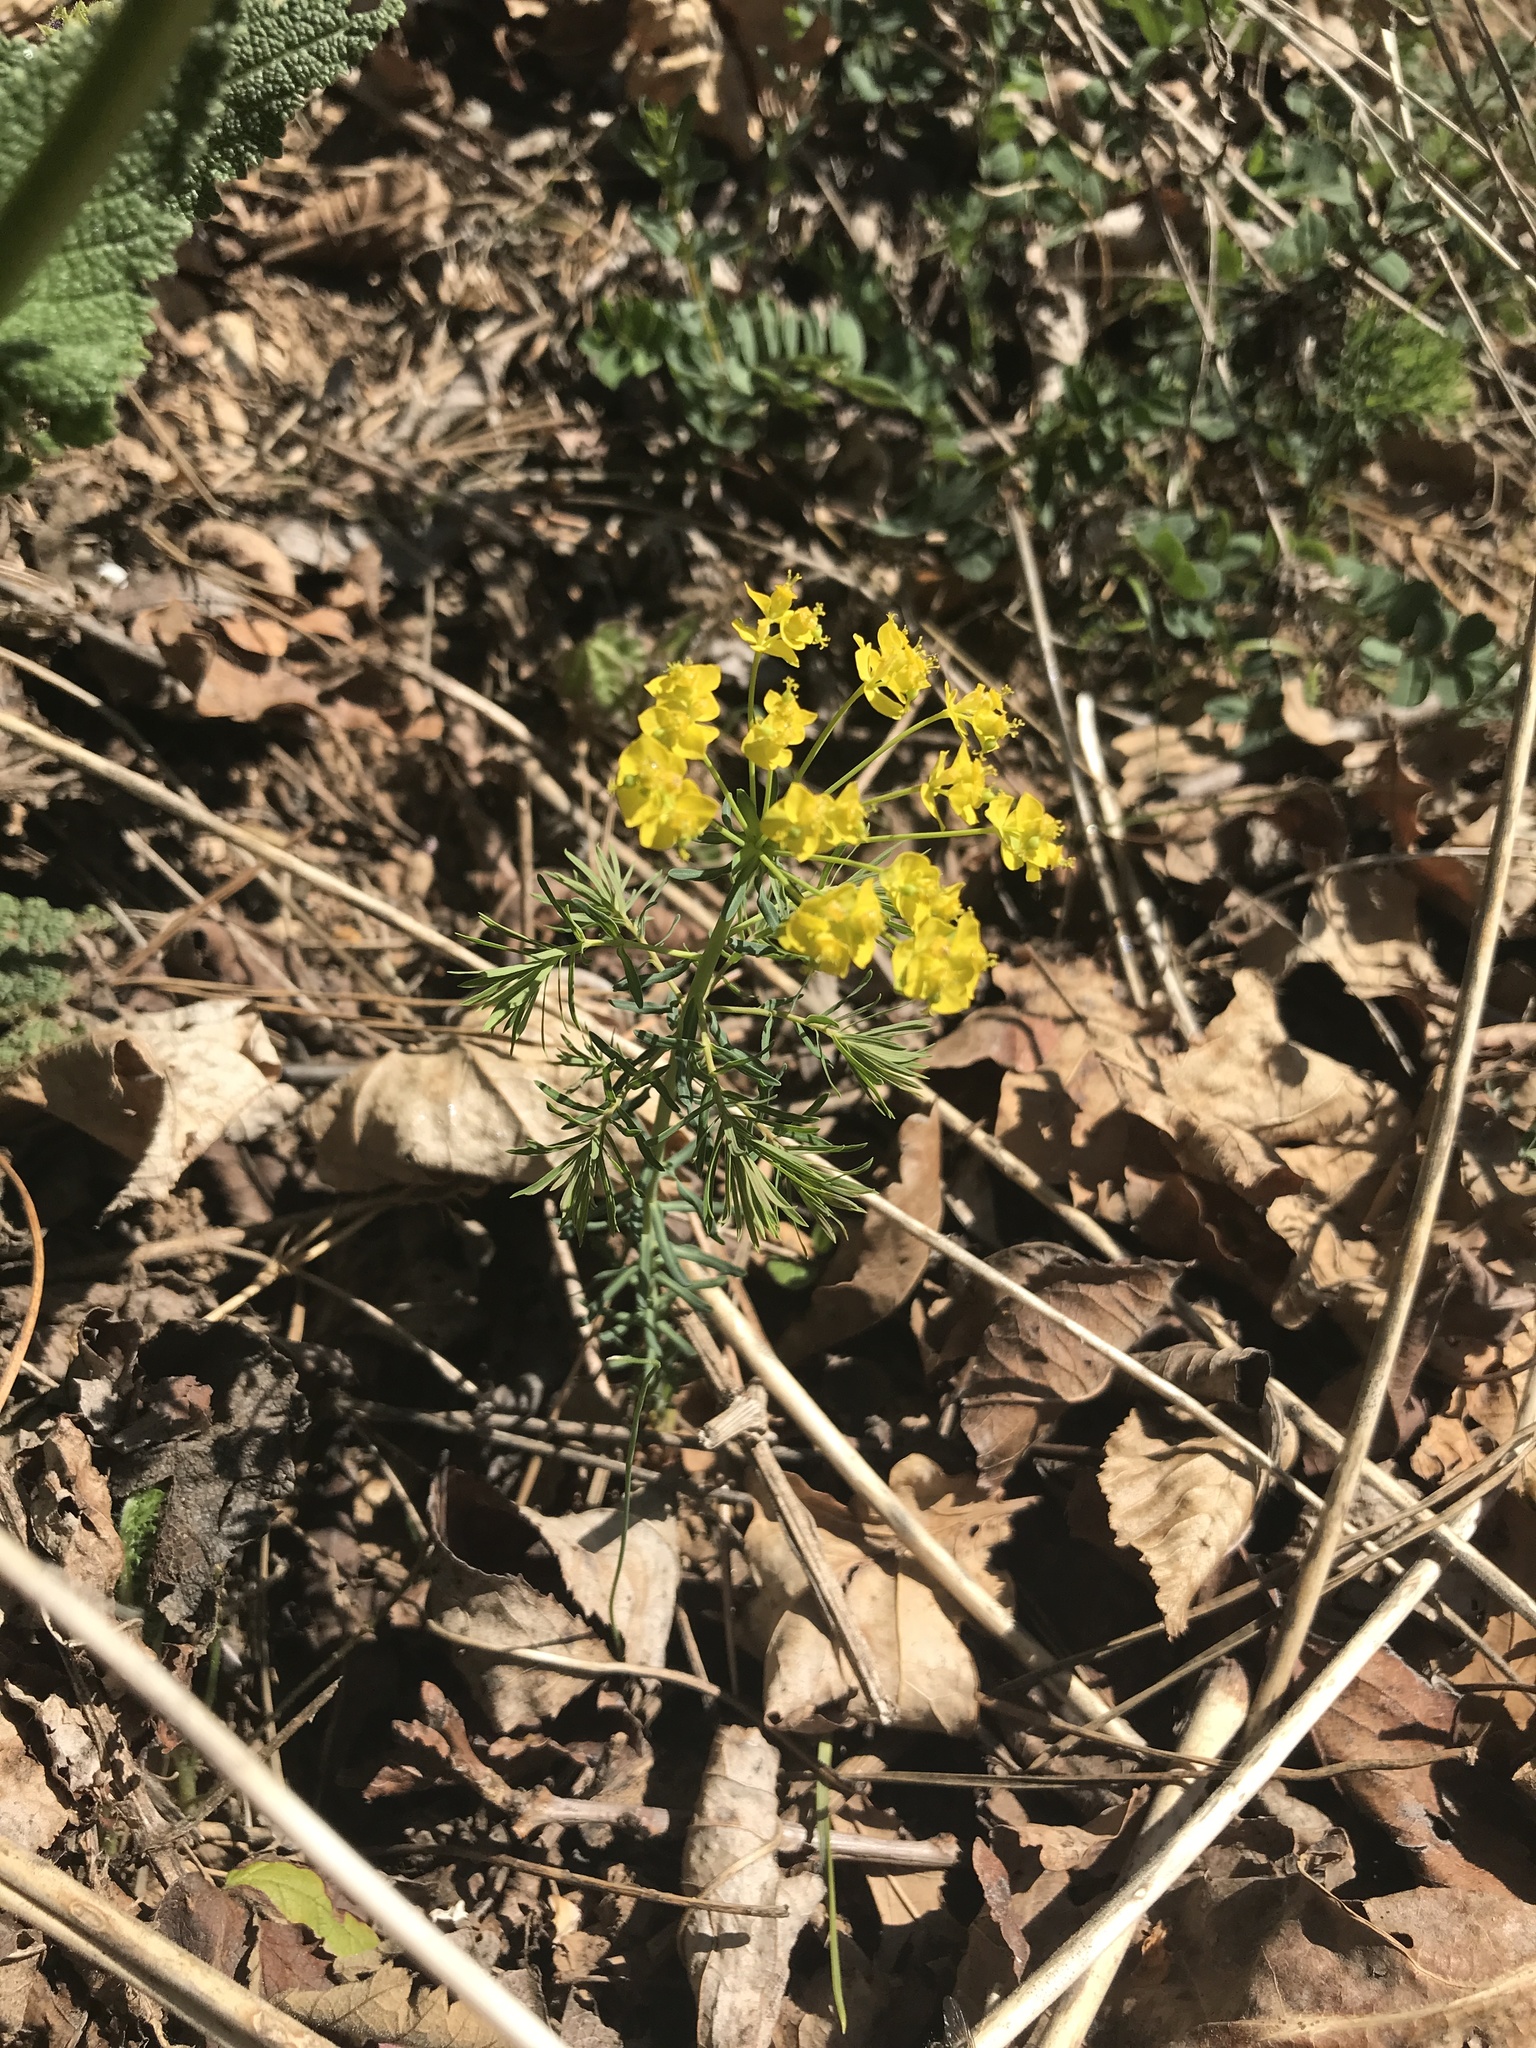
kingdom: Plantae
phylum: Tracheophyta
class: Magnoliopsida
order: Malpighiales
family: Euphorbiaceae
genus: Euphorbia
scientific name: Euphorbia cyparissias
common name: Cypress spurge
